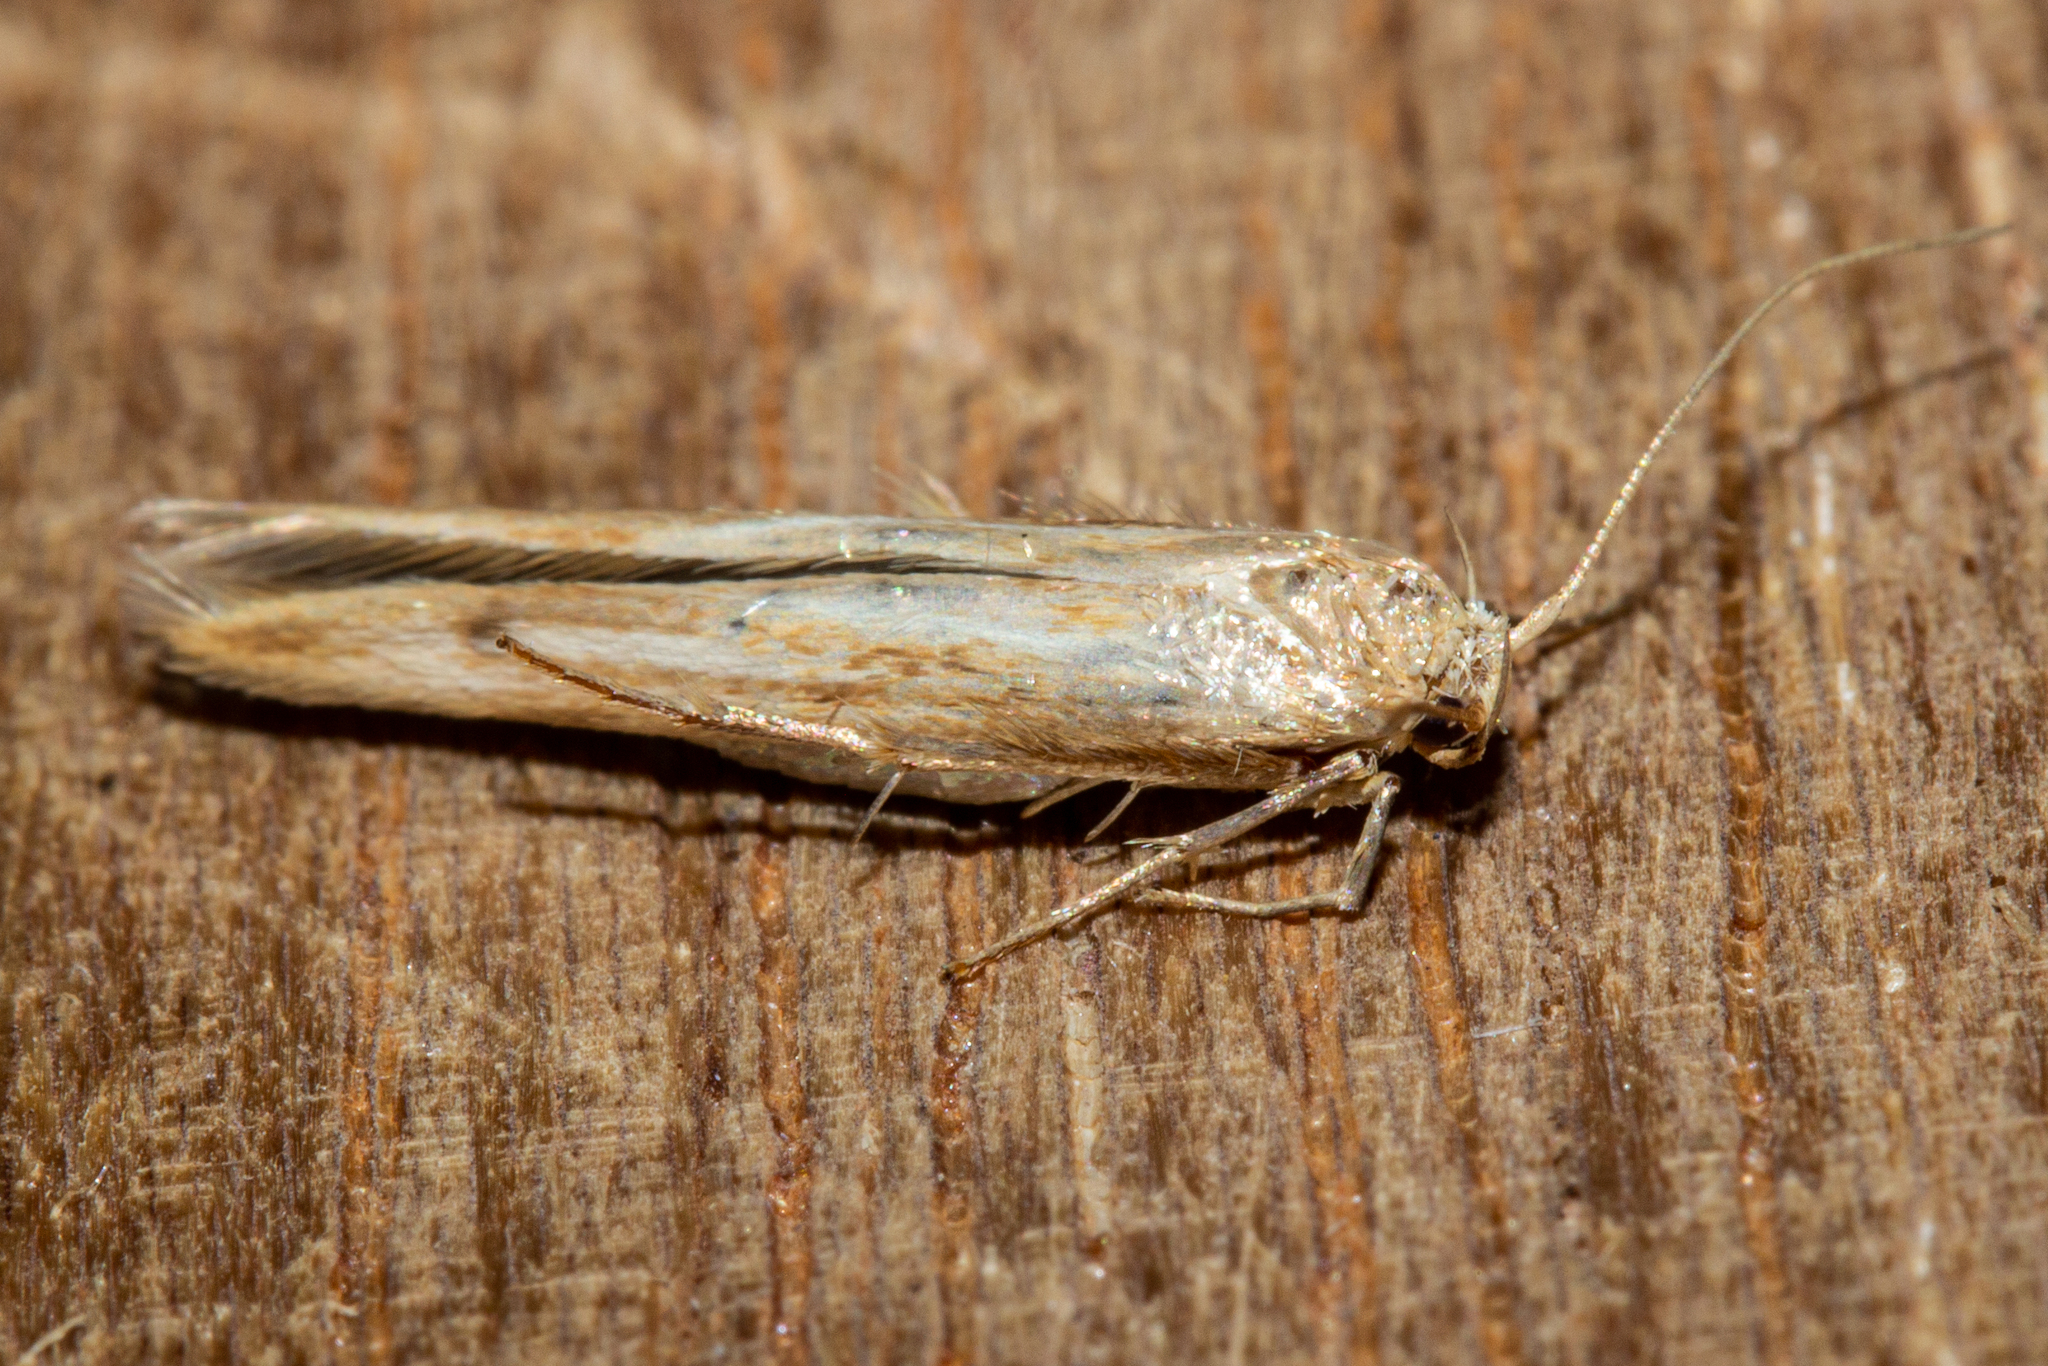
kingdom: Animalia
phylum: Arthropoda
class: Insecta
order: Lepidoptera
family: Stathmopodidae
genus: Stathmopoda
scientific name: Stathmopoda aposema
